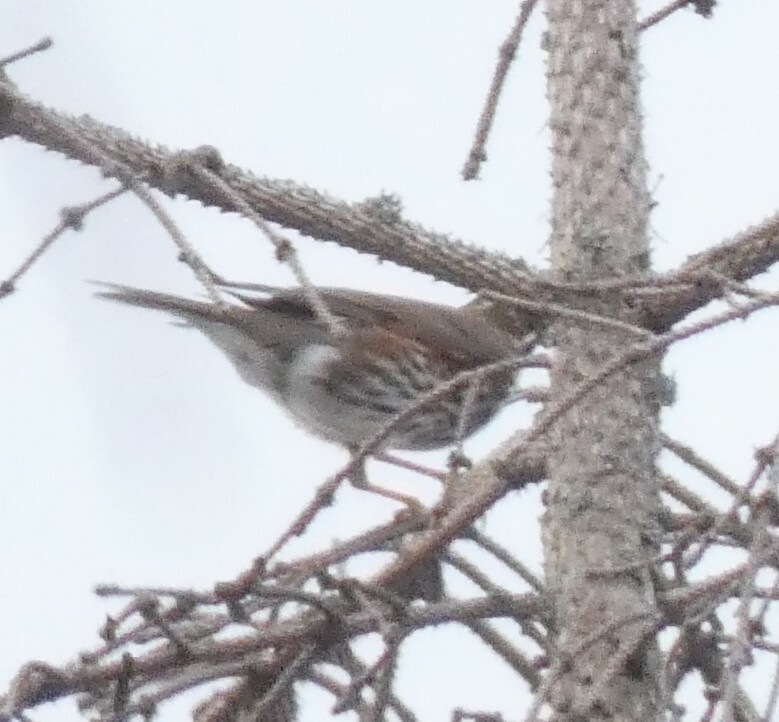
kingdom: Animalia
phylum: Chordata
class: Aves
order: Passeriformes
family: Turdidae
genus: Turdus
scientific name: Turdus iliacus
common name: Redwing
